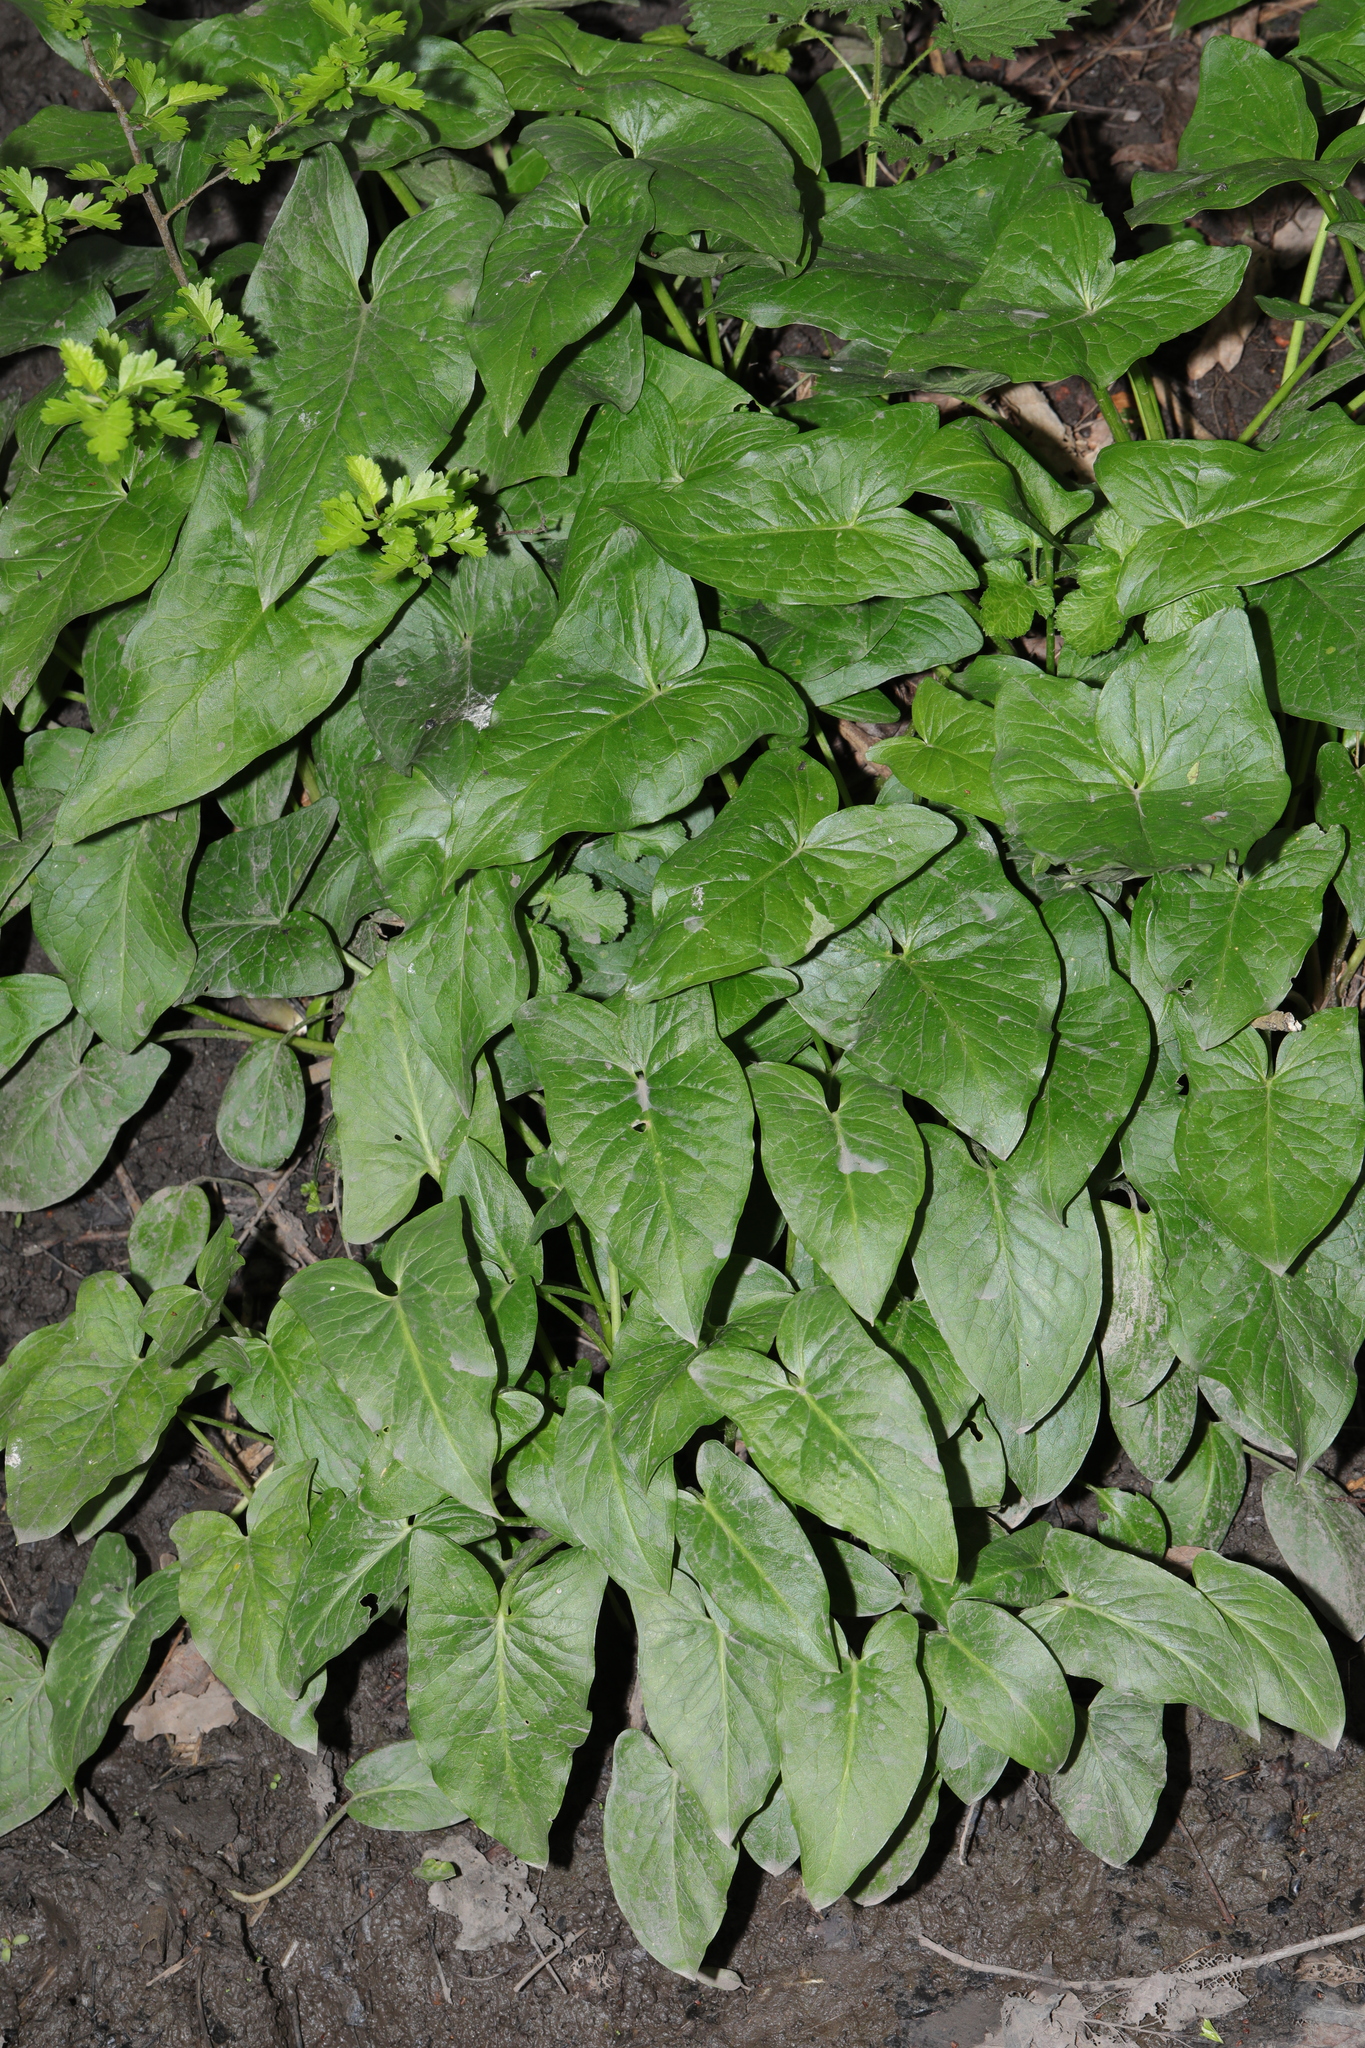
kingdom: Plantae
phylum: Tracheophyta
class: Liliopsida
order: Alismatales
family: Araceae
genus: Arum
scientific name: Arum maculatum
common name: Lords-and-ladies
